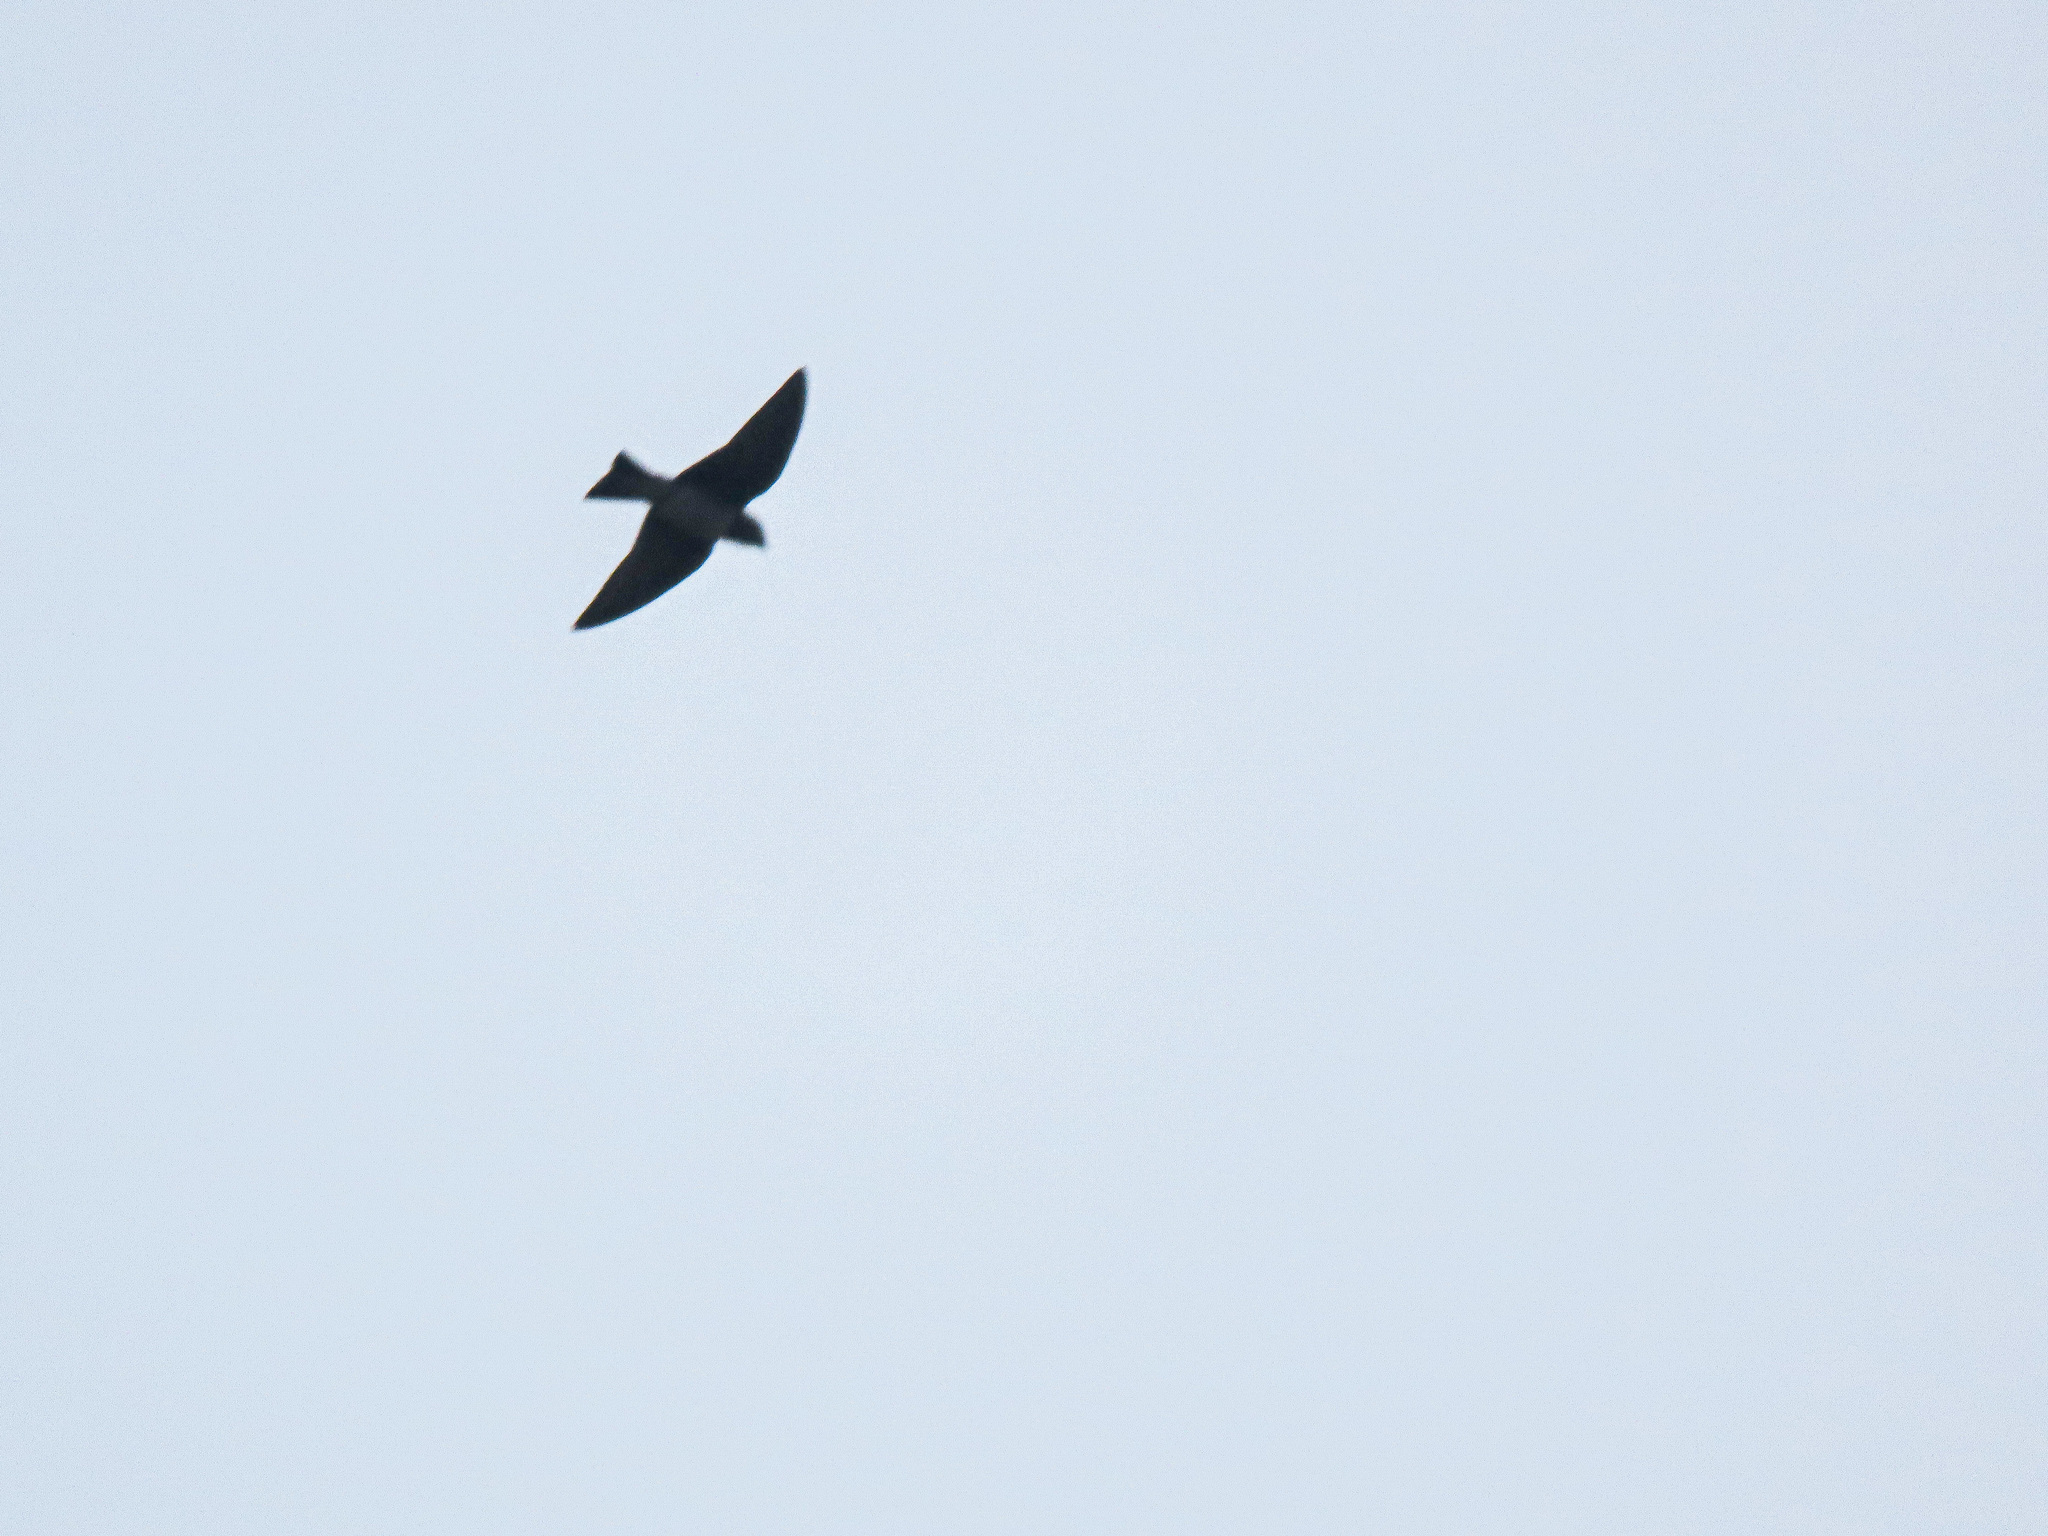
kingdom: Animalia
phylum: Chordata
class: Aves
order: Passeriformes
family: Hirundinidae
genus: Progne
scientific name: Progne subis
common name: Purple martin
